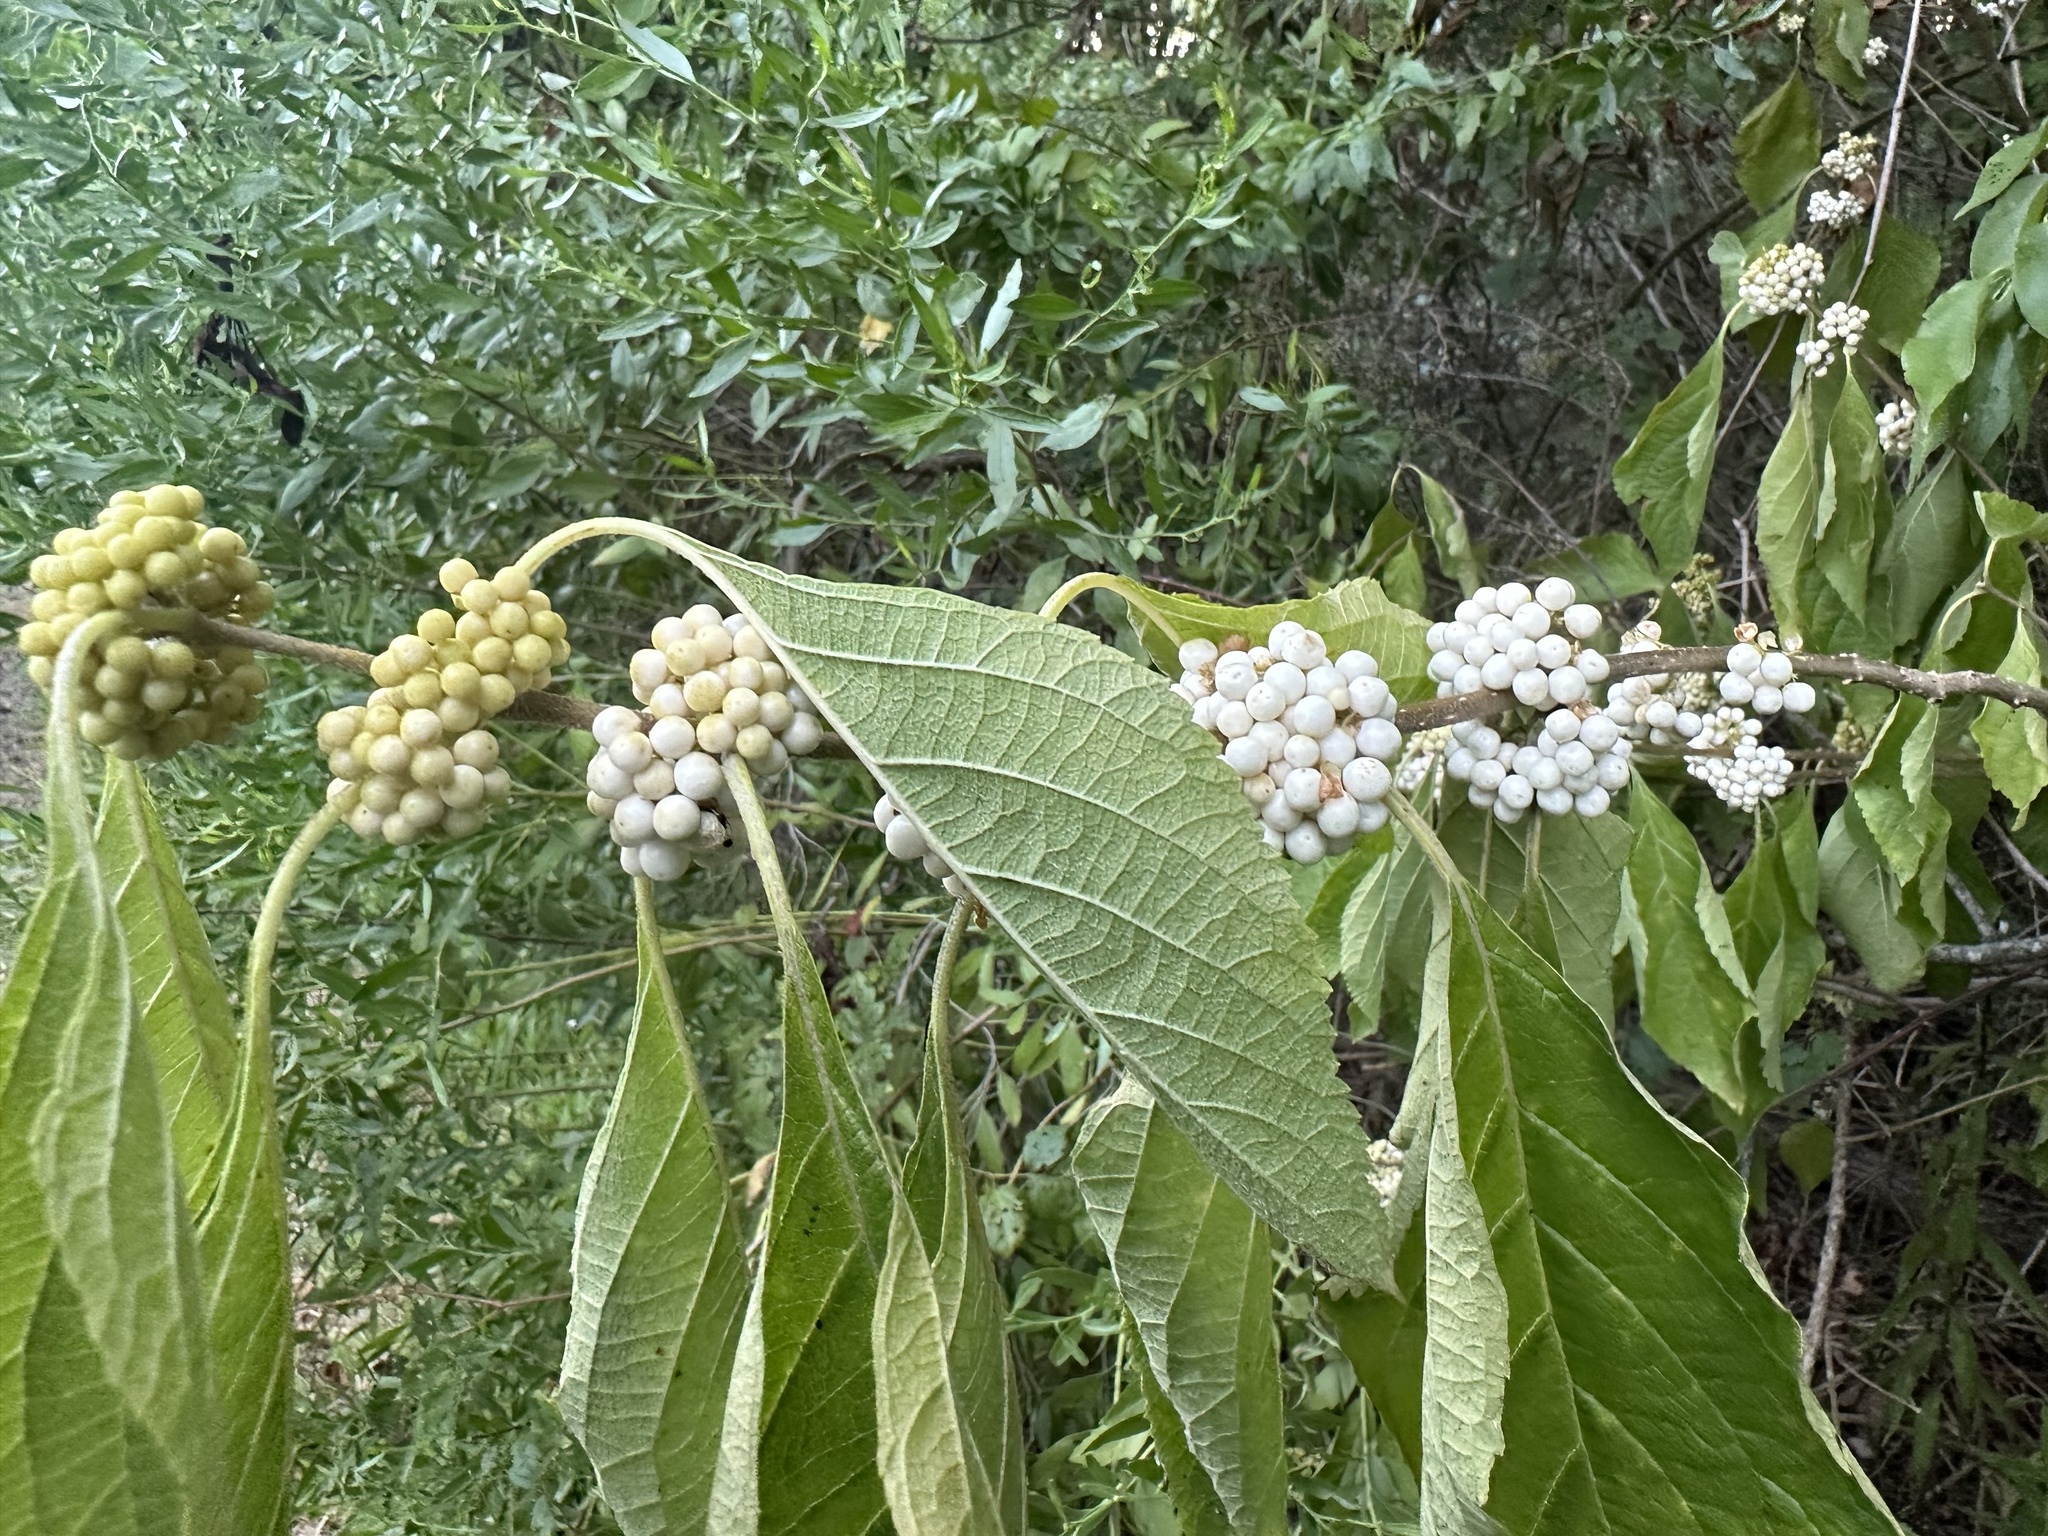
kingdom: Plantae
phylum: Tracheophyta
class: Magnoliopsida
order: Lamiales
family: Lamiaceae
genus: Callicarpa
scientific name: Callicarpa americana
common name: American beautyberry
